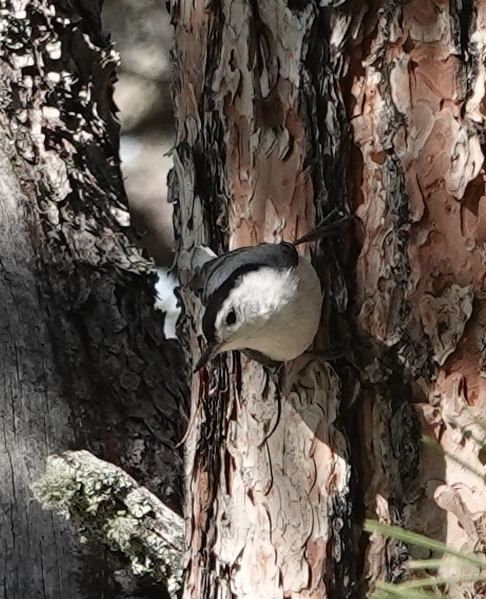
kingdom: Animalia
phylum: Chordata
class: Aves
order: Passeriformes
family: Sittidae
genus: Sitta
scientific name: Sitta carolinensis
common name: White-breasted nuthatch
